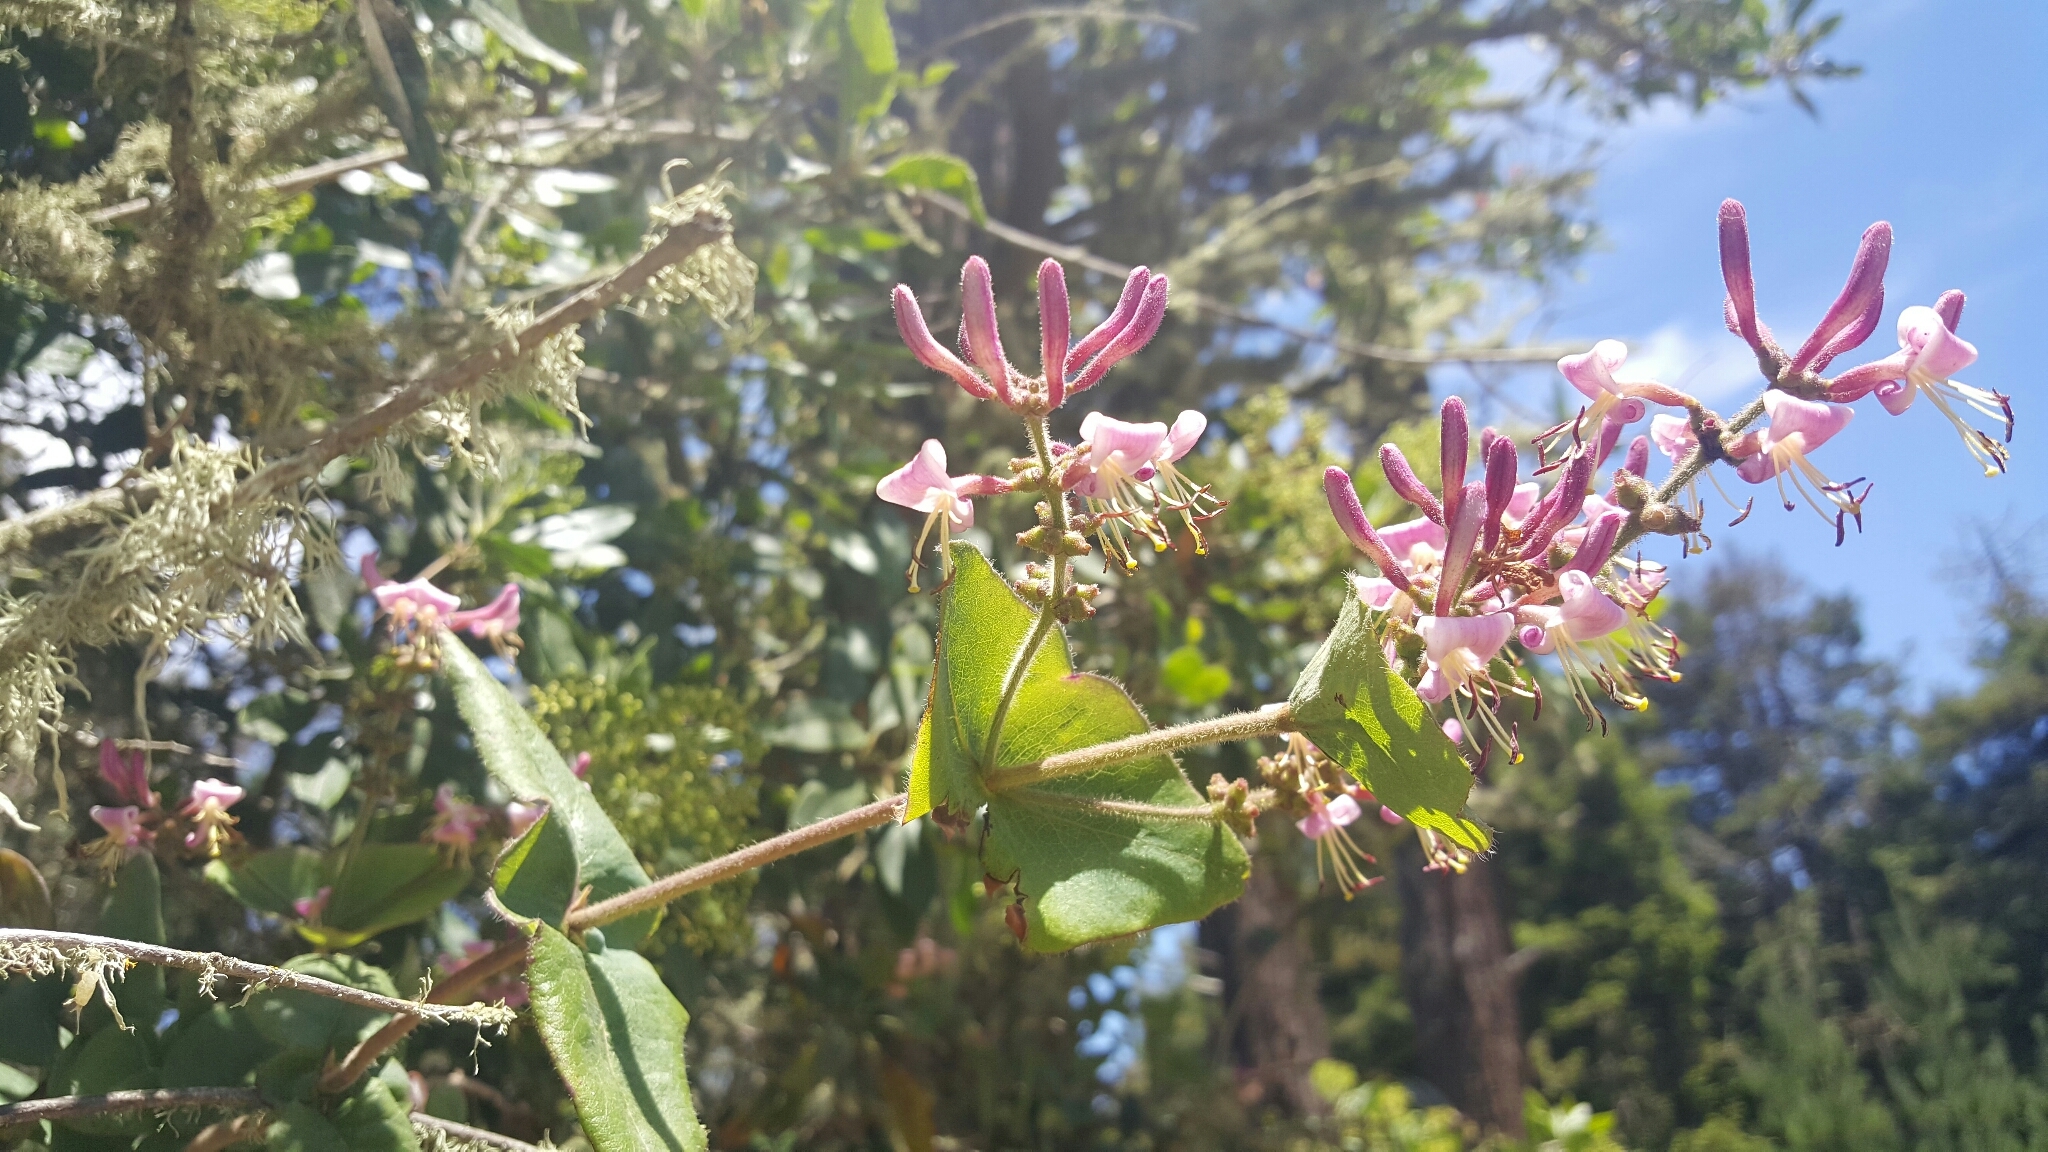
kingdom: Plantae
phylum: Tracheophyta
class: Magnoliopsida
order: Dipsacales
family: Caprifoliaceae
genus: Lonicera
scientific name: Lonicera hispidula
